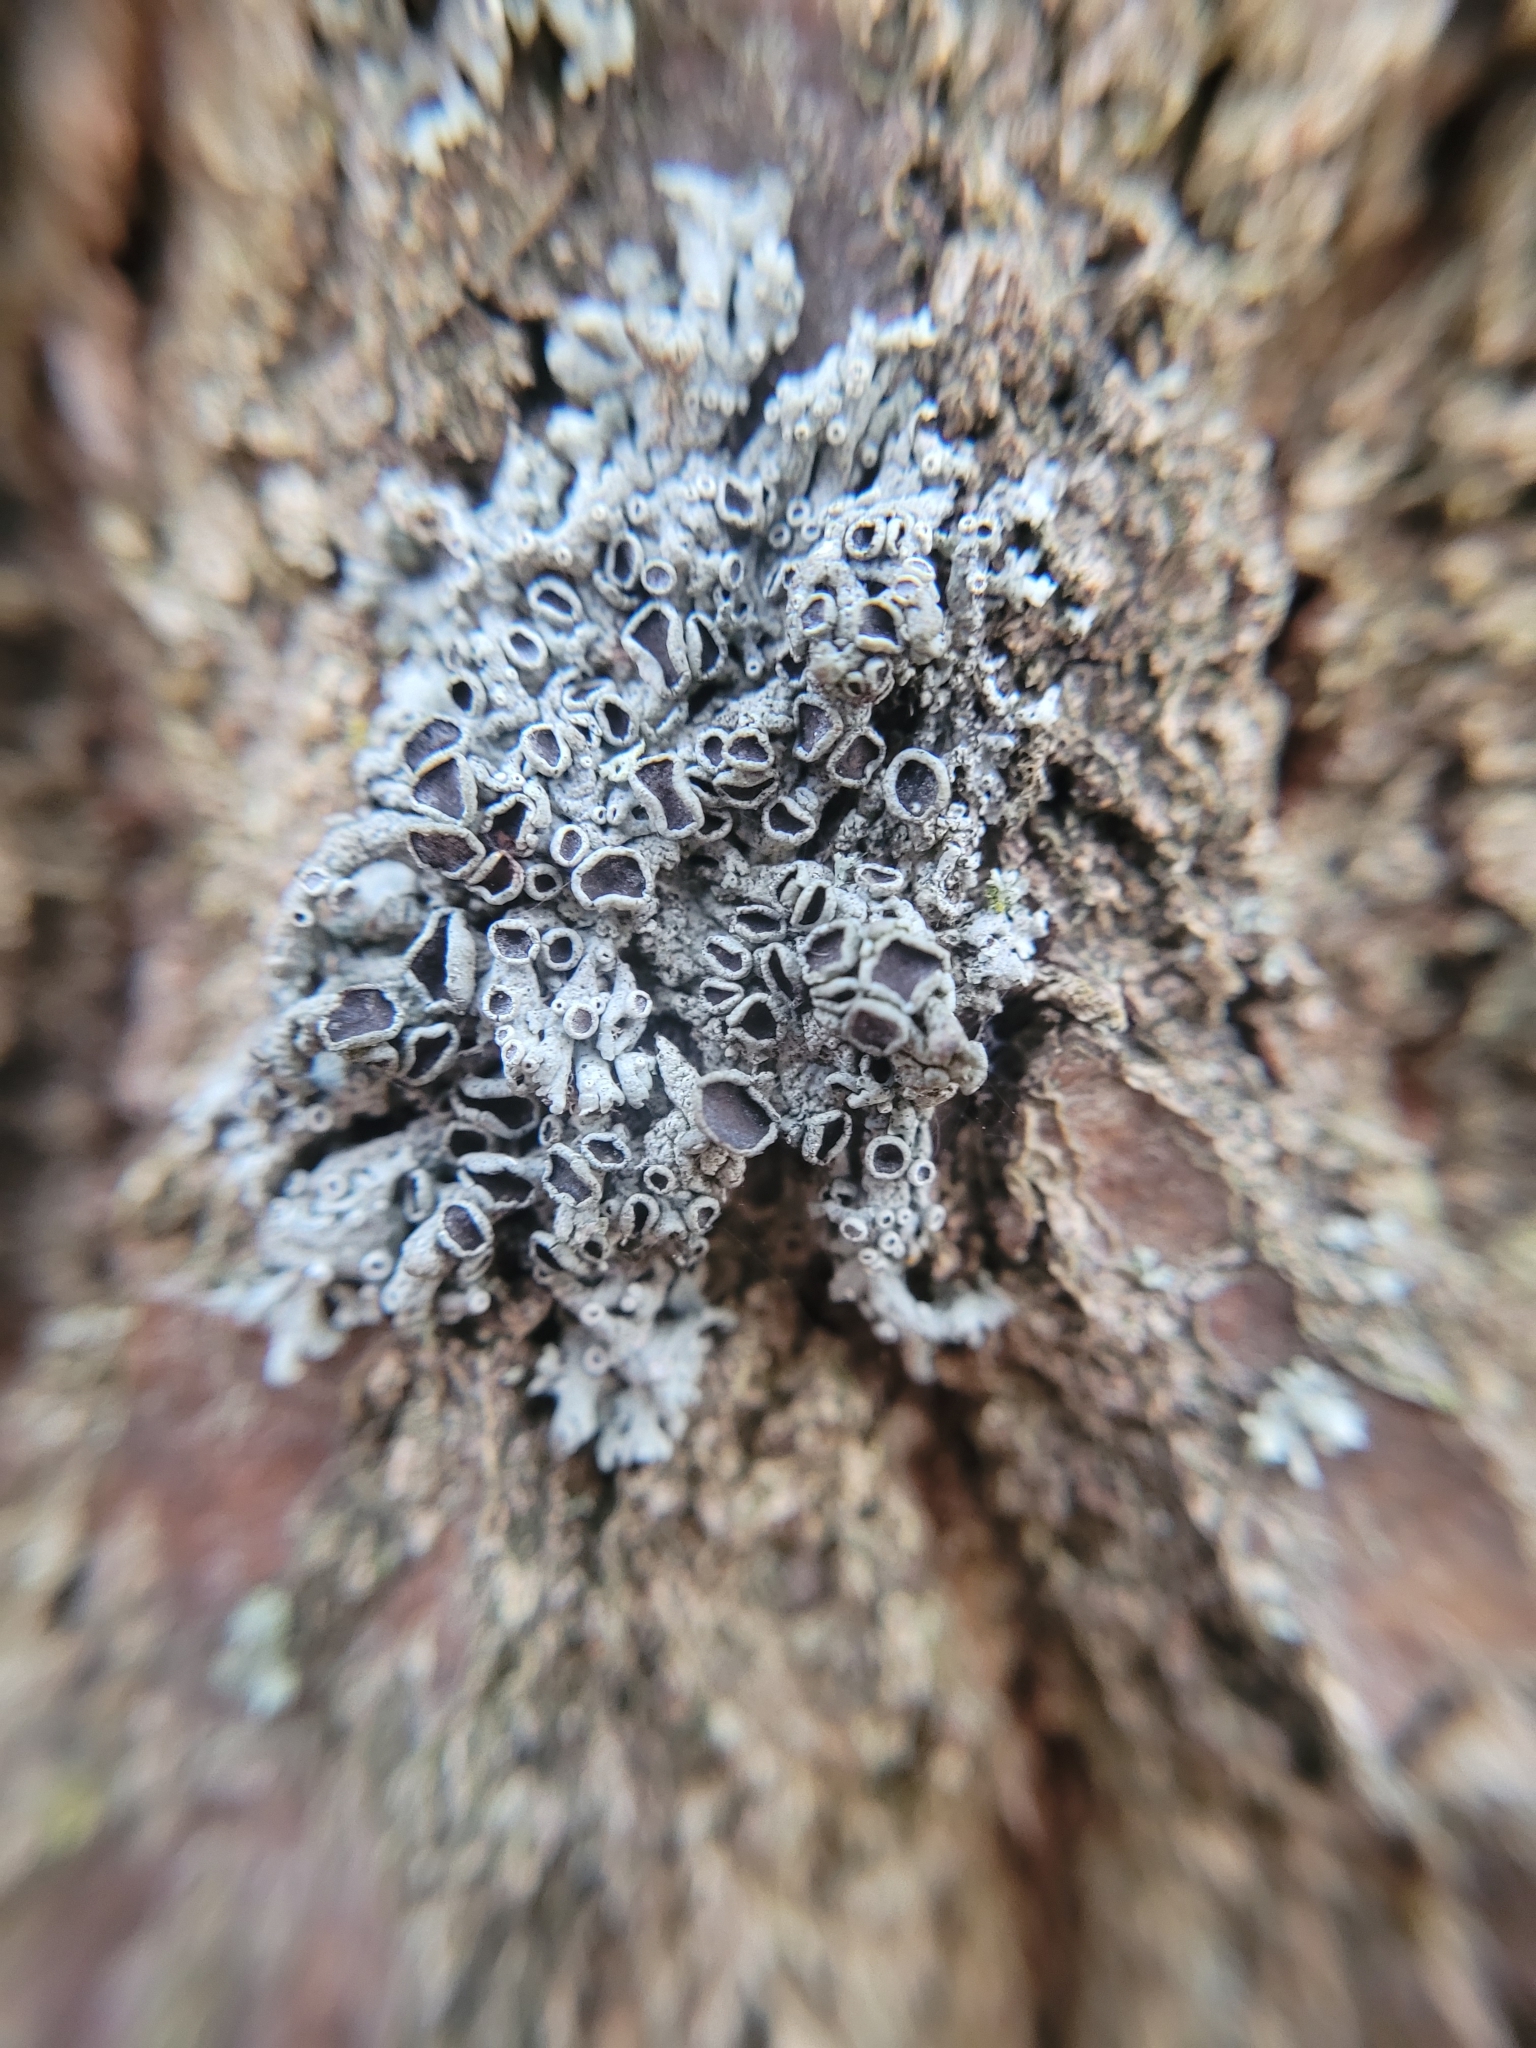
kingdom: Fungi
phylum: Ascomycota
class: Lecanoromycetes
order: Caliciales
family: Physciaceae
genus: Physcia
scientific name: Physcia stellaris
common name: Star rosette lichen
